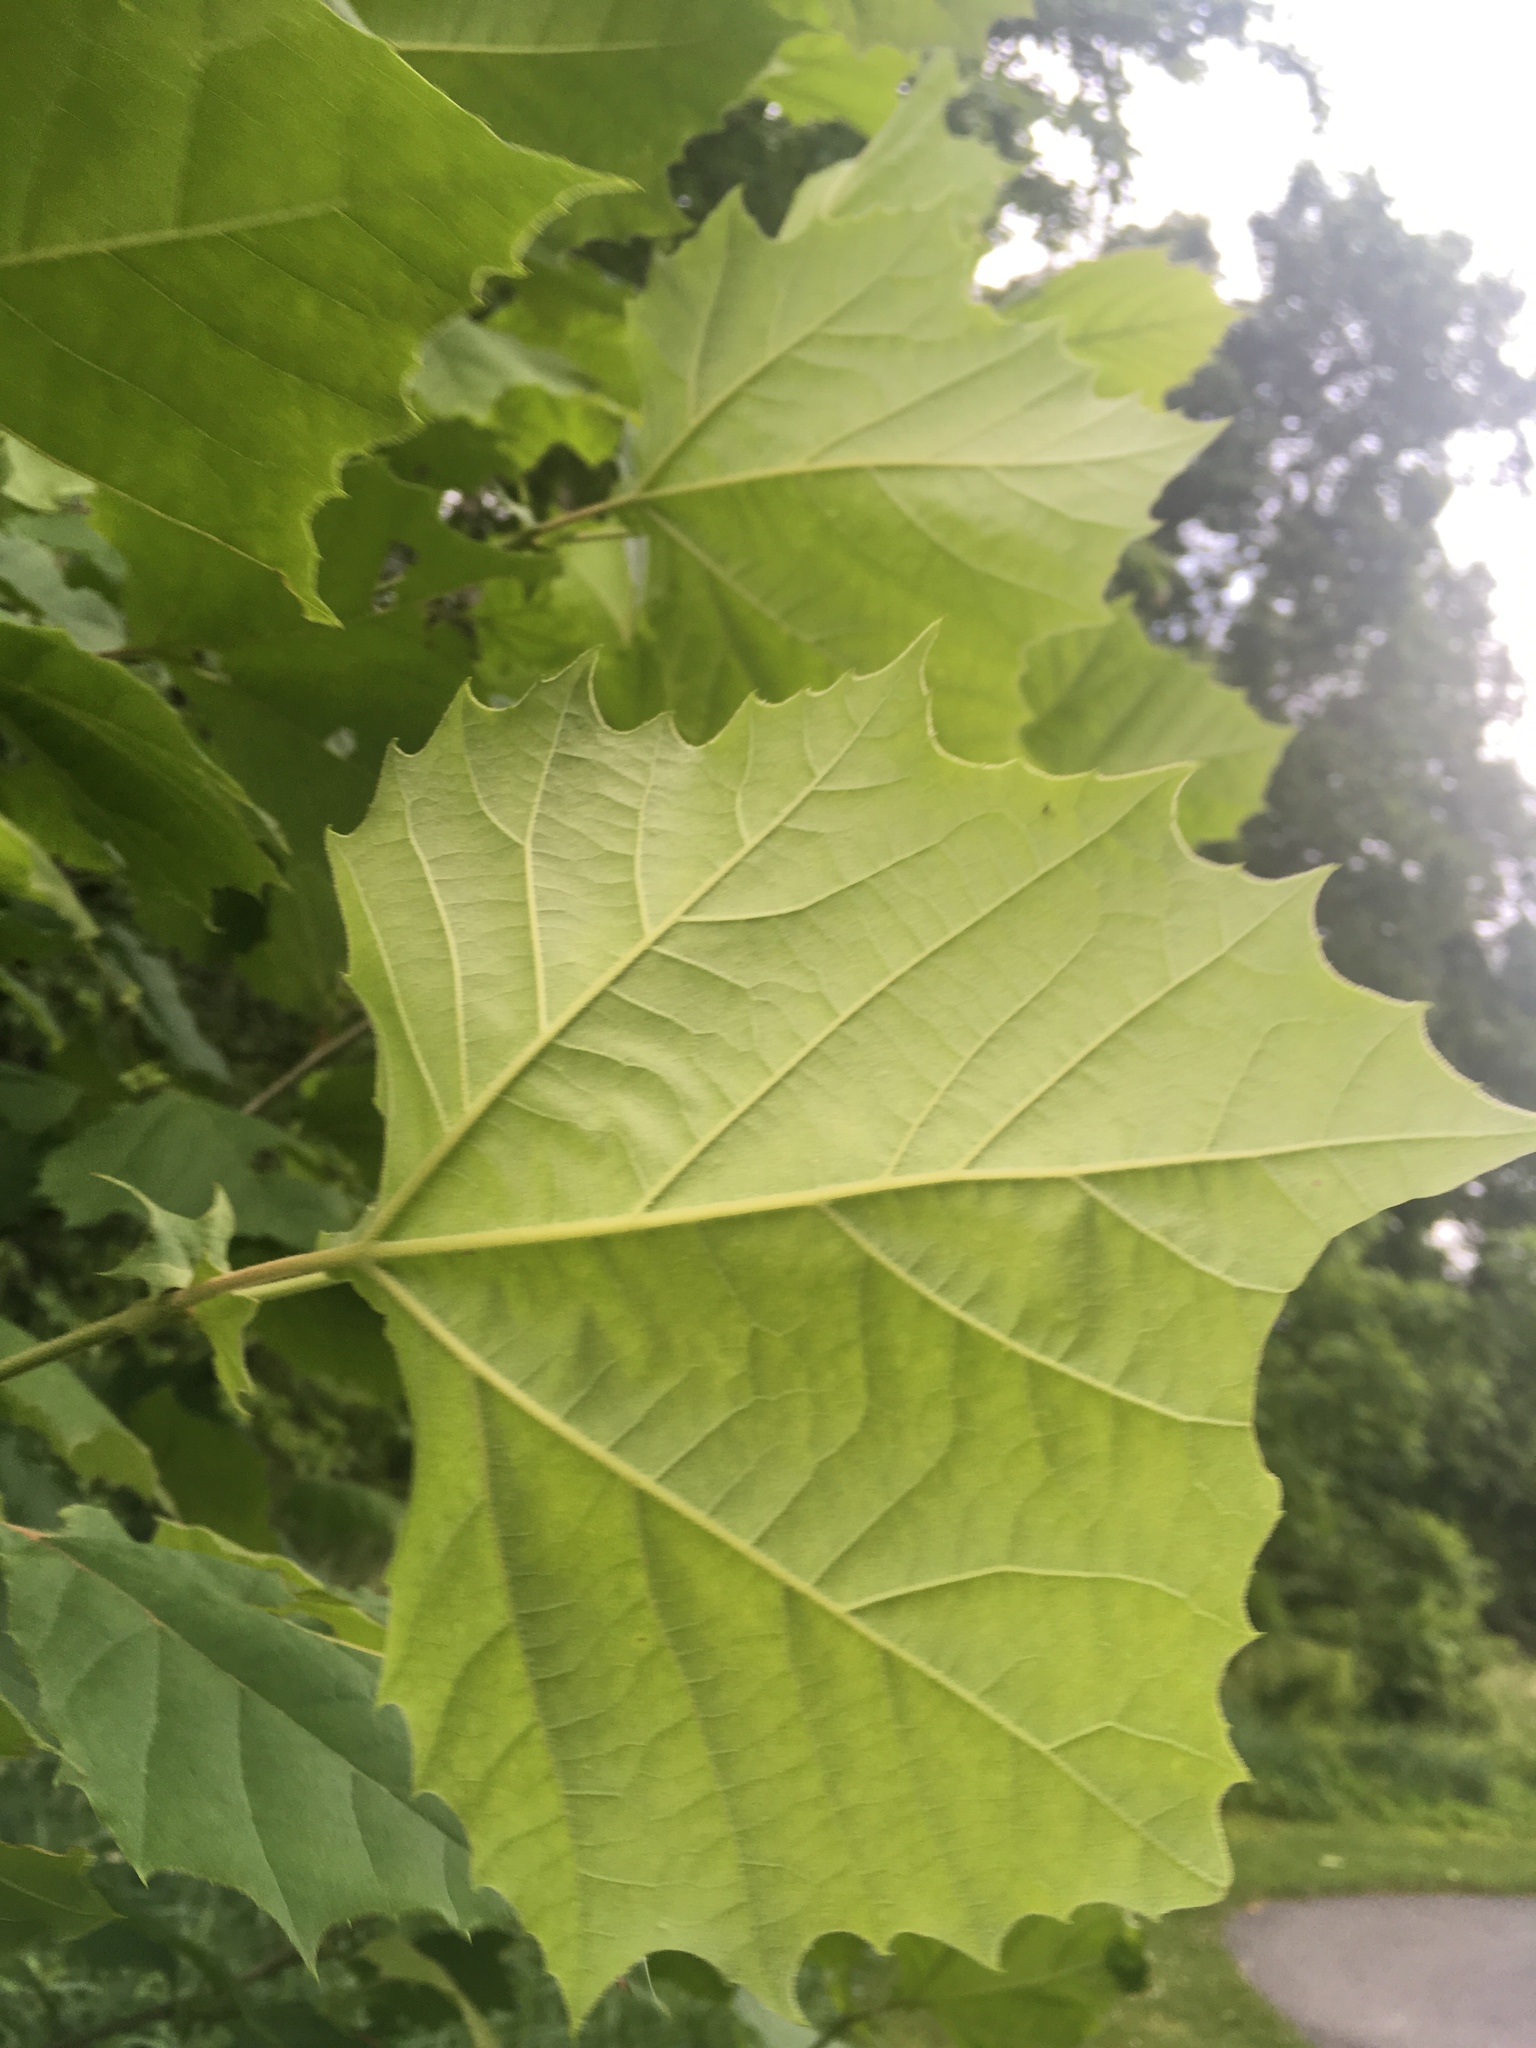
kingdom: Plantae
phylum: Tracheophyta
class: Magnoliopsida
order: Proteales
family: Platanaceae
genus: Platanus
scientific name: Platanus occidentalis
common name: American sycamore
